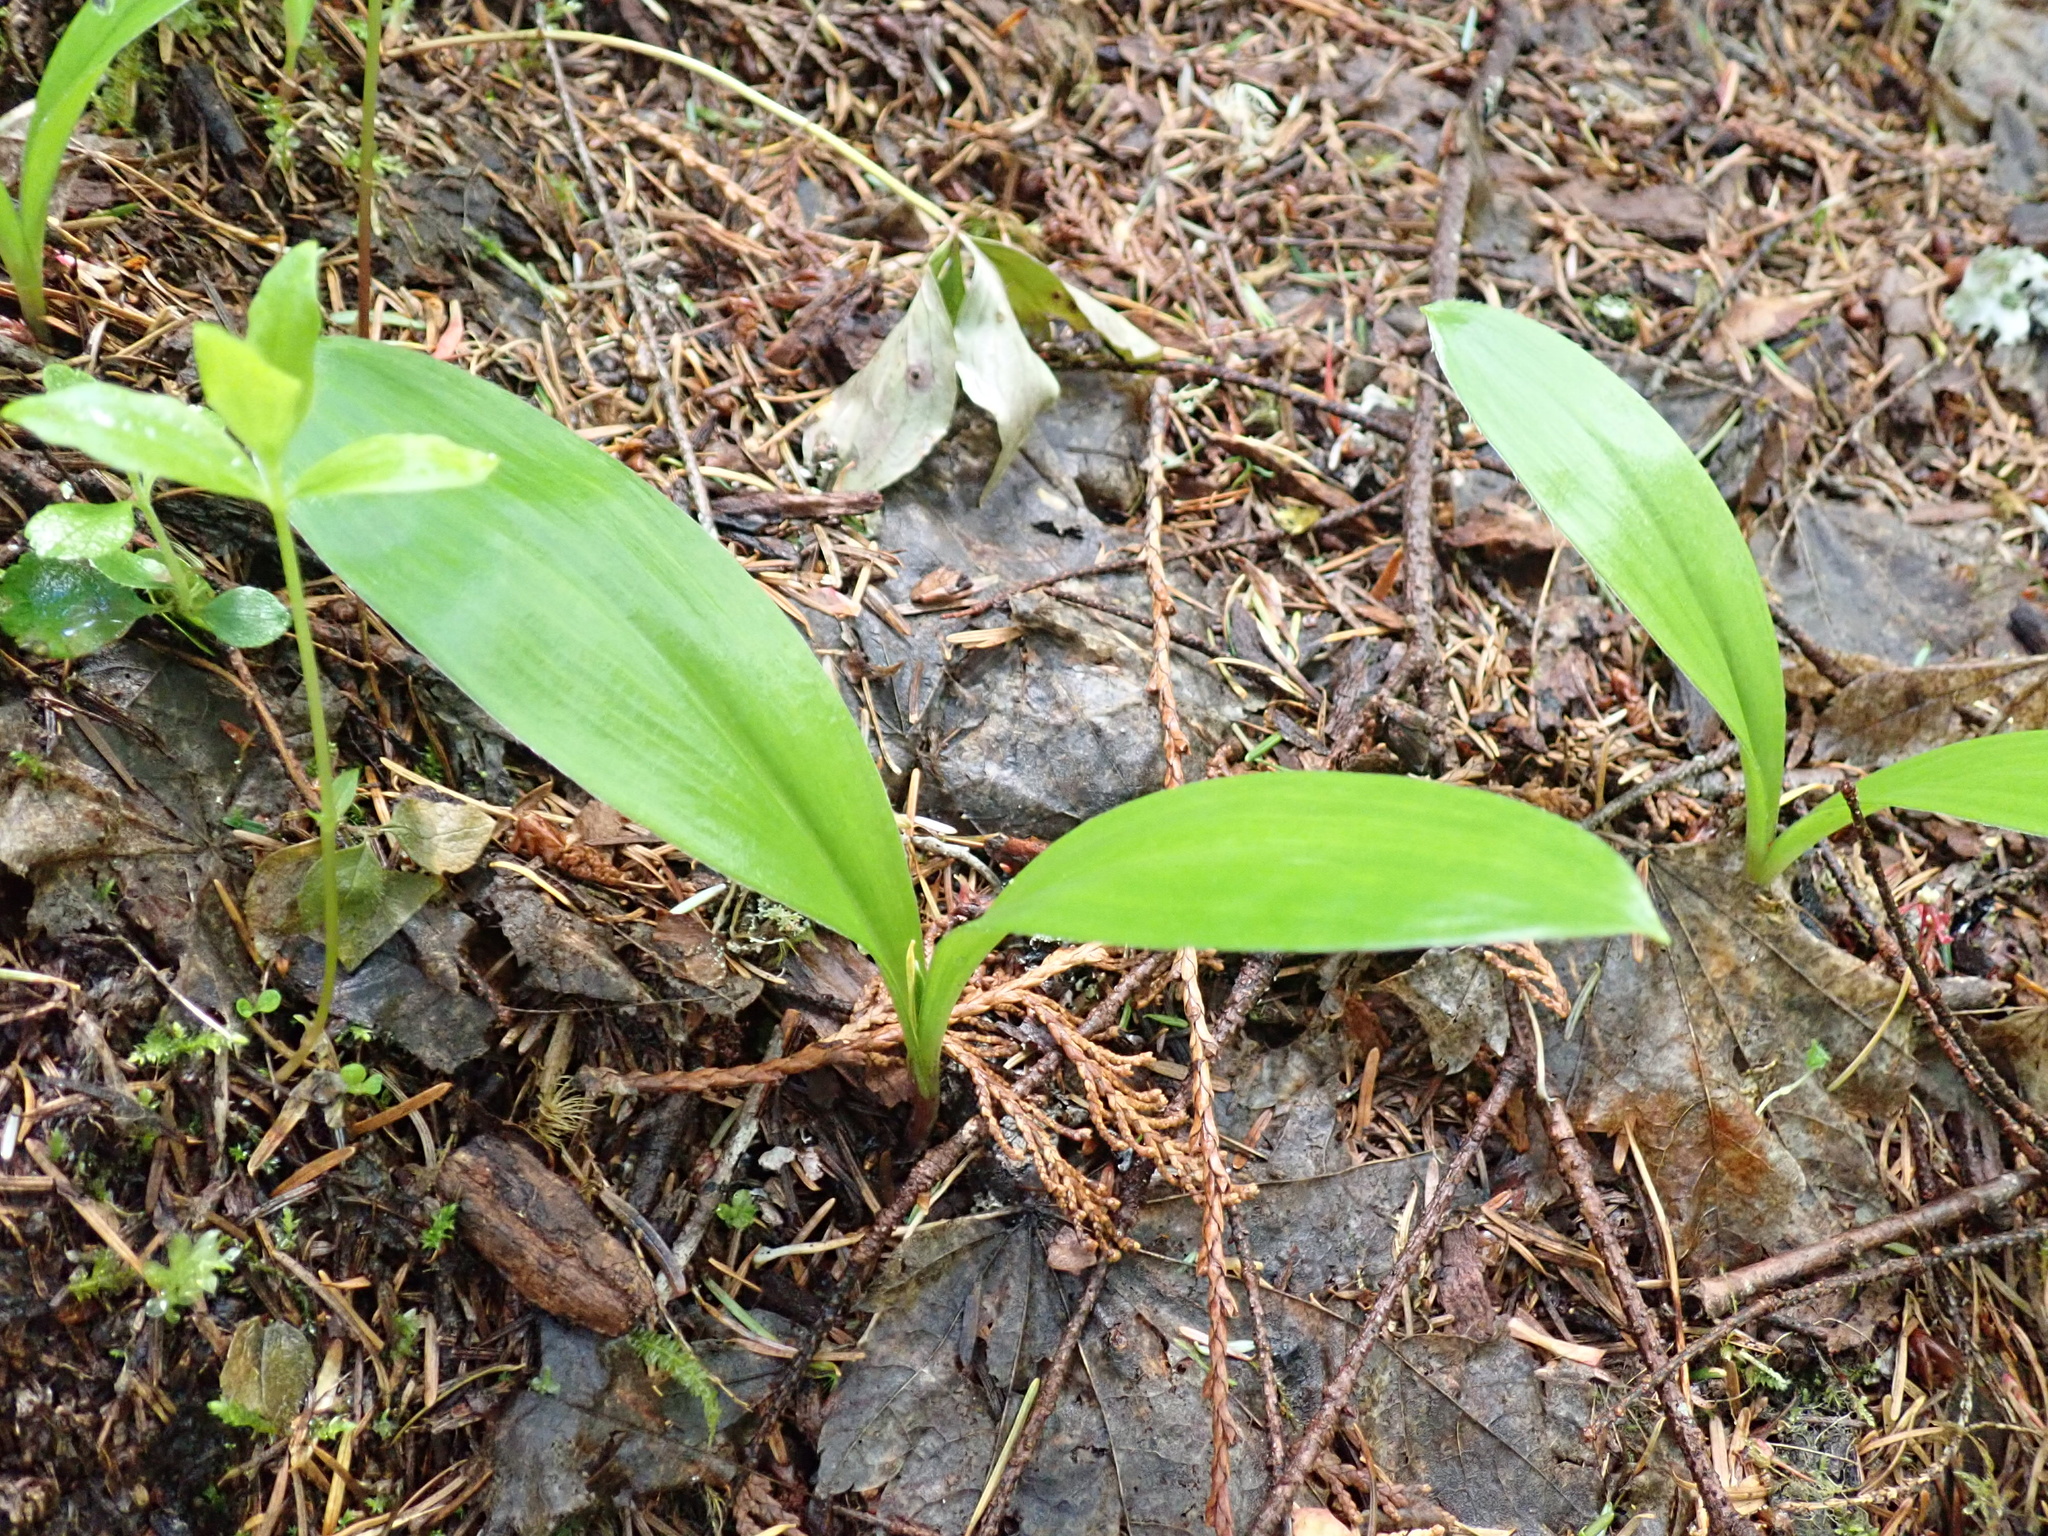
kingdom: Plantae
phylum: Tracheophyta
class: Liliopsida
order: Liliales
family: Liliaceae
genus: Clintonia
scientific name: Clintonia uniflora
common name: Queen's cup
